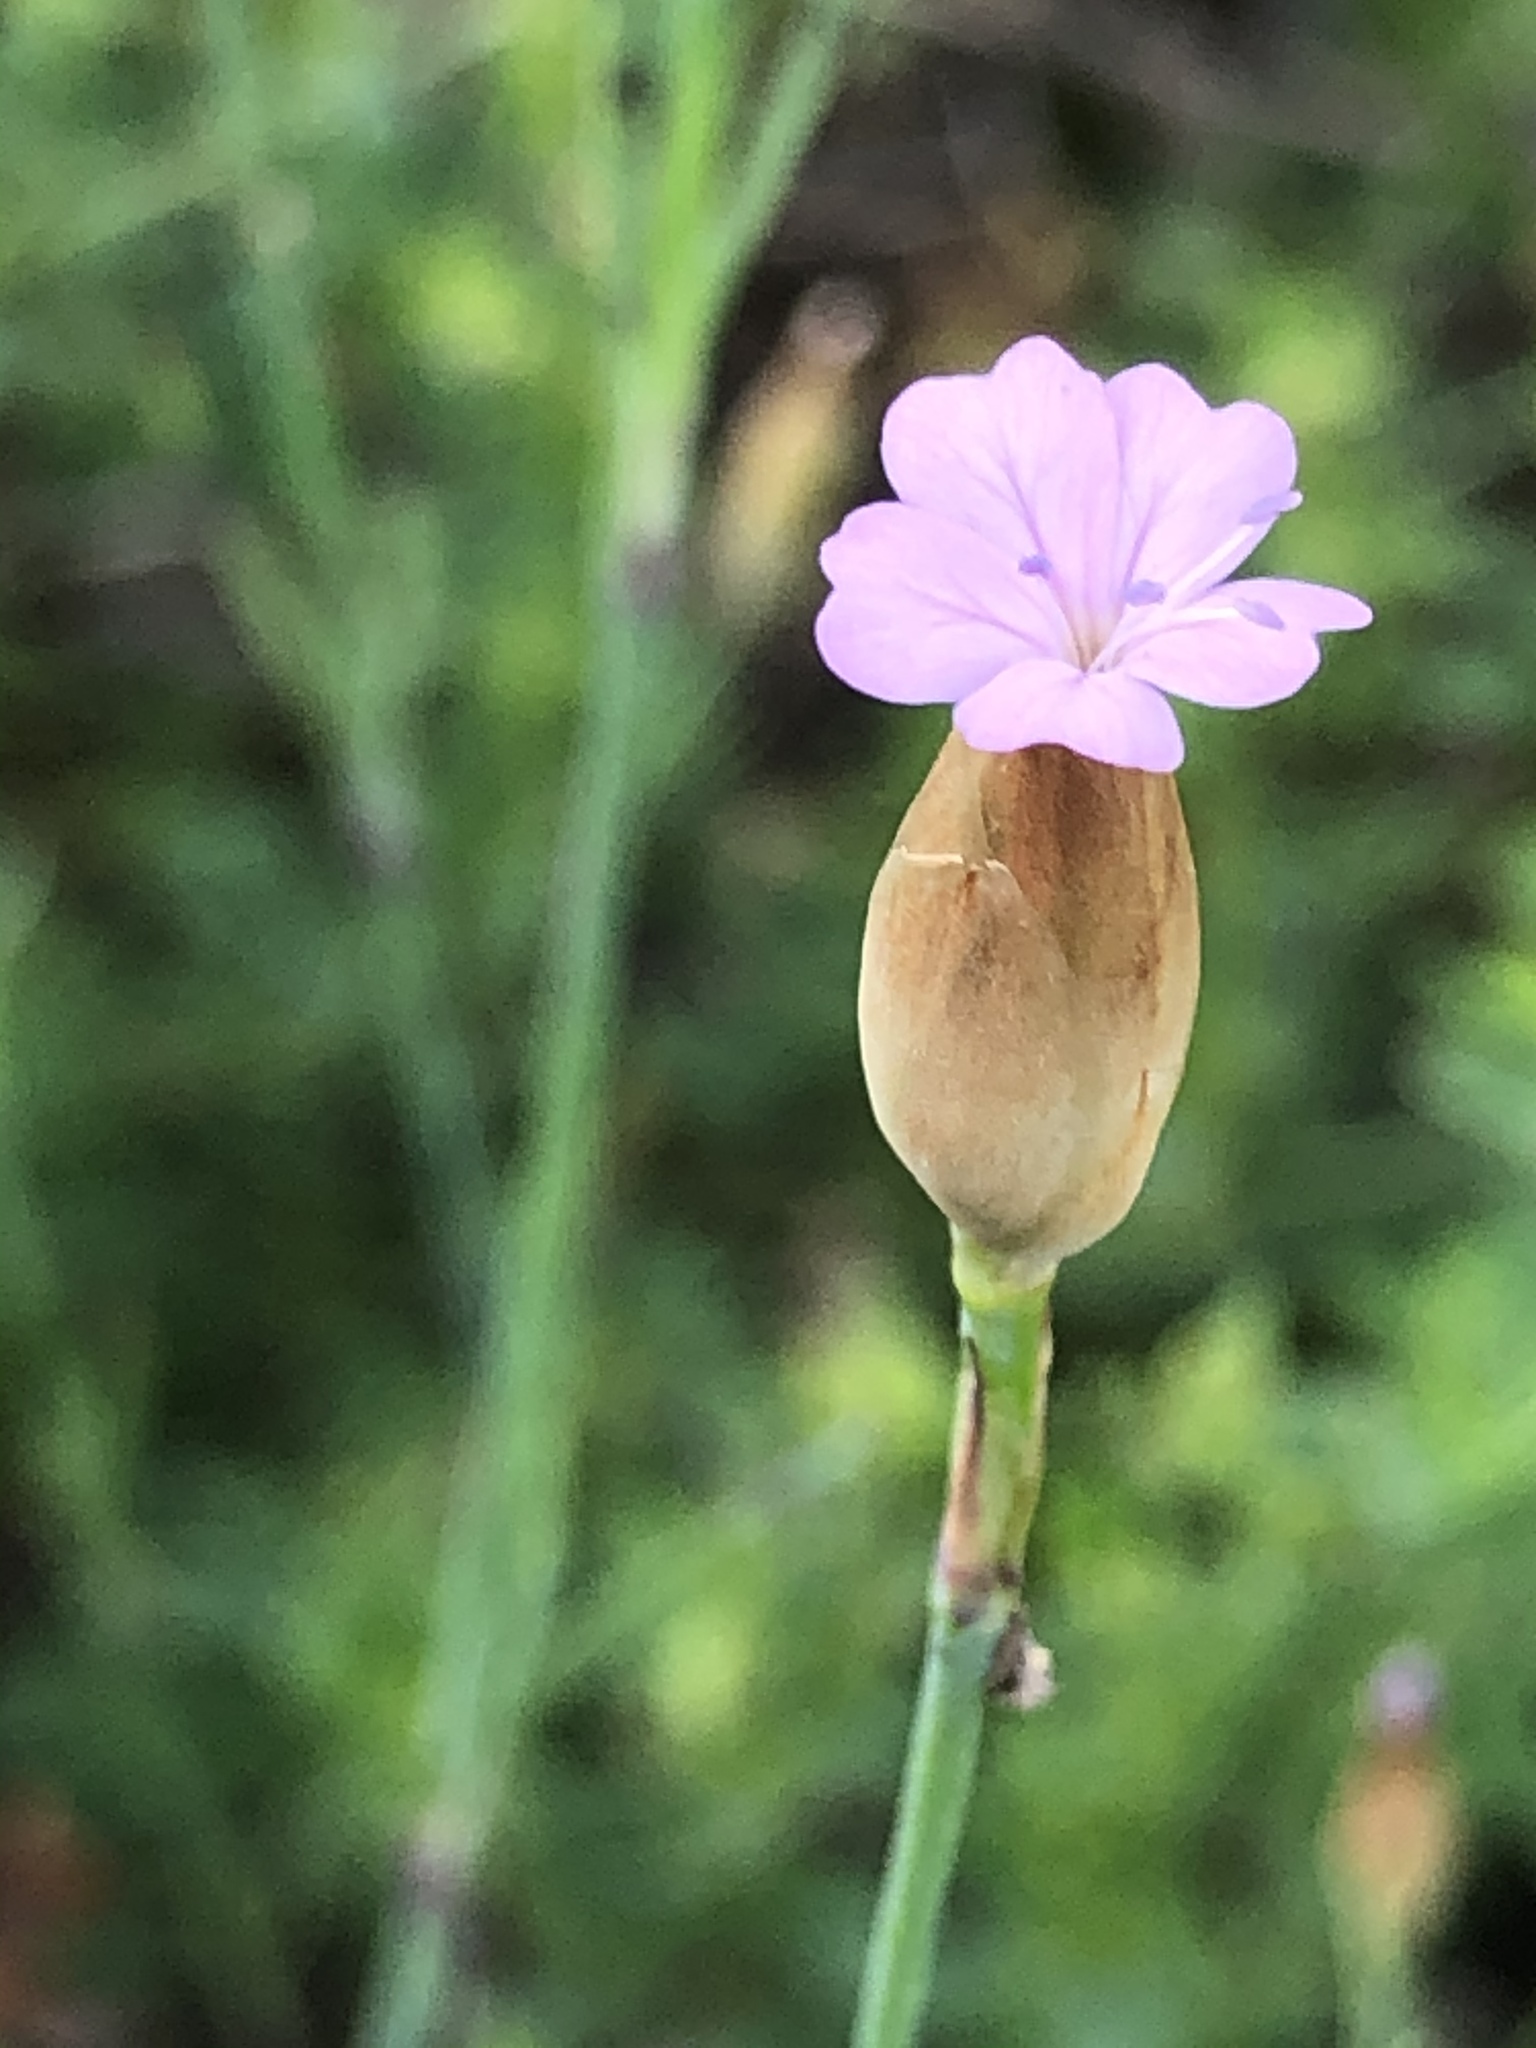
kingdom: Plantae
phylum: Tracheophyta
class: Magnoliopsida
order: Caryophyllales
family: Caryophyllaceae
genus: Petrorhagia
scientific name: Petrorhagia prolifera
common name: Proliferous pink
